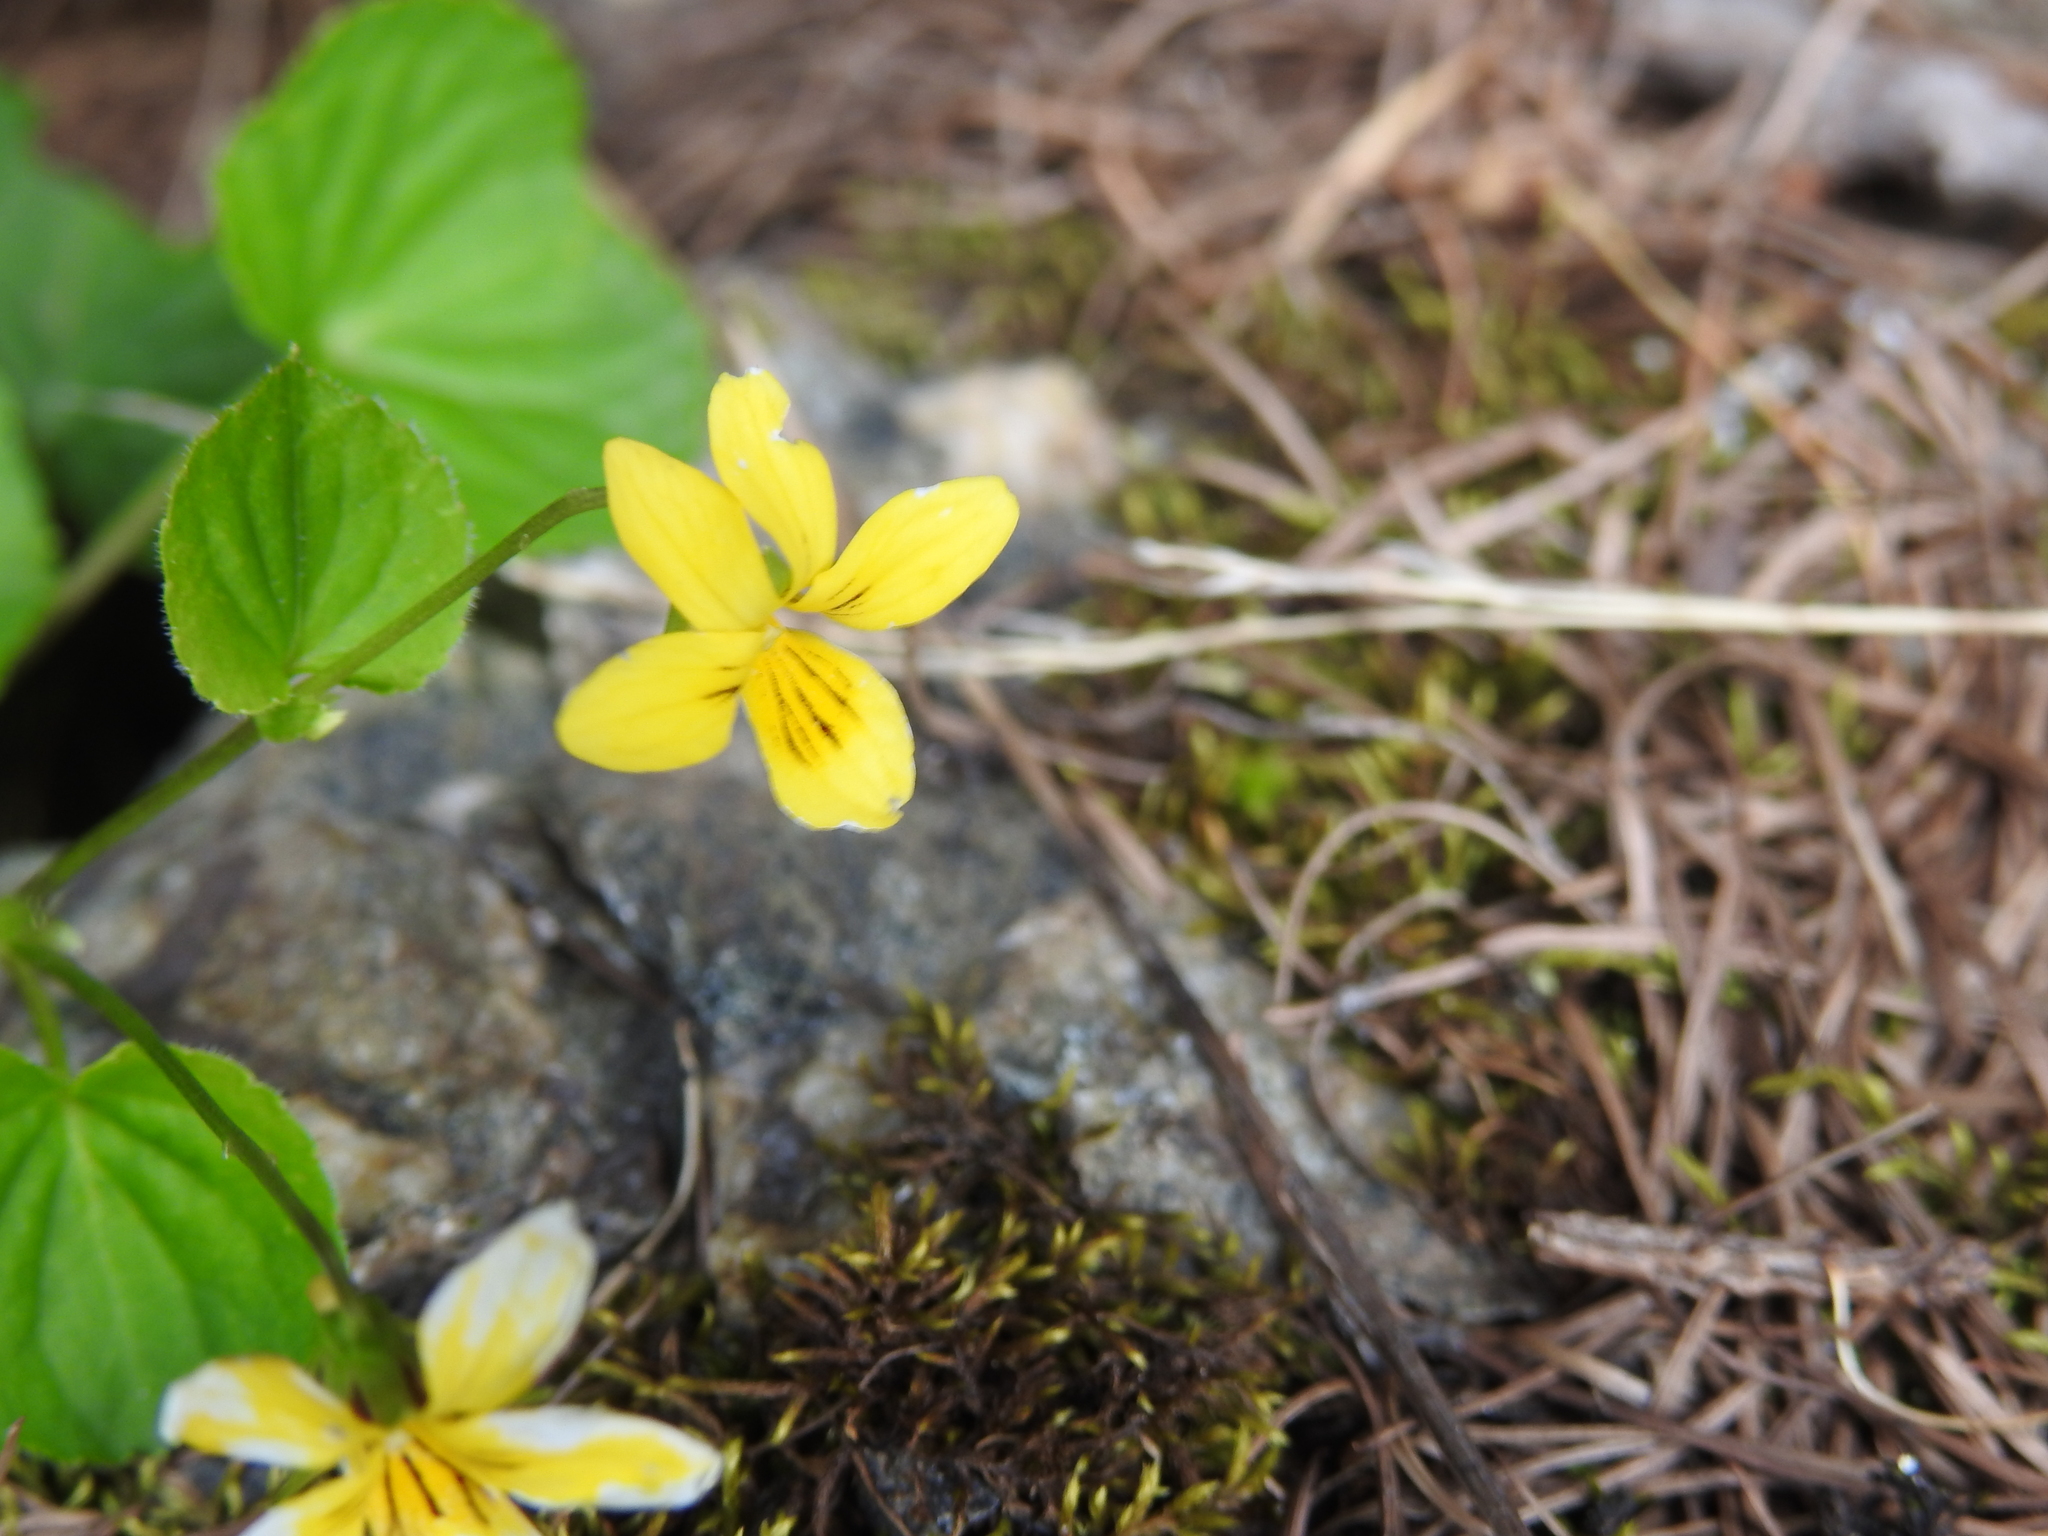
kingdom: Plantae
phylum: Tracheophyta
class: Magnoliopsida
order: Malpighiales
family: Violaceae
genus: Viola
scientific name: Viola biflora
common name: Alpine yellow violet
